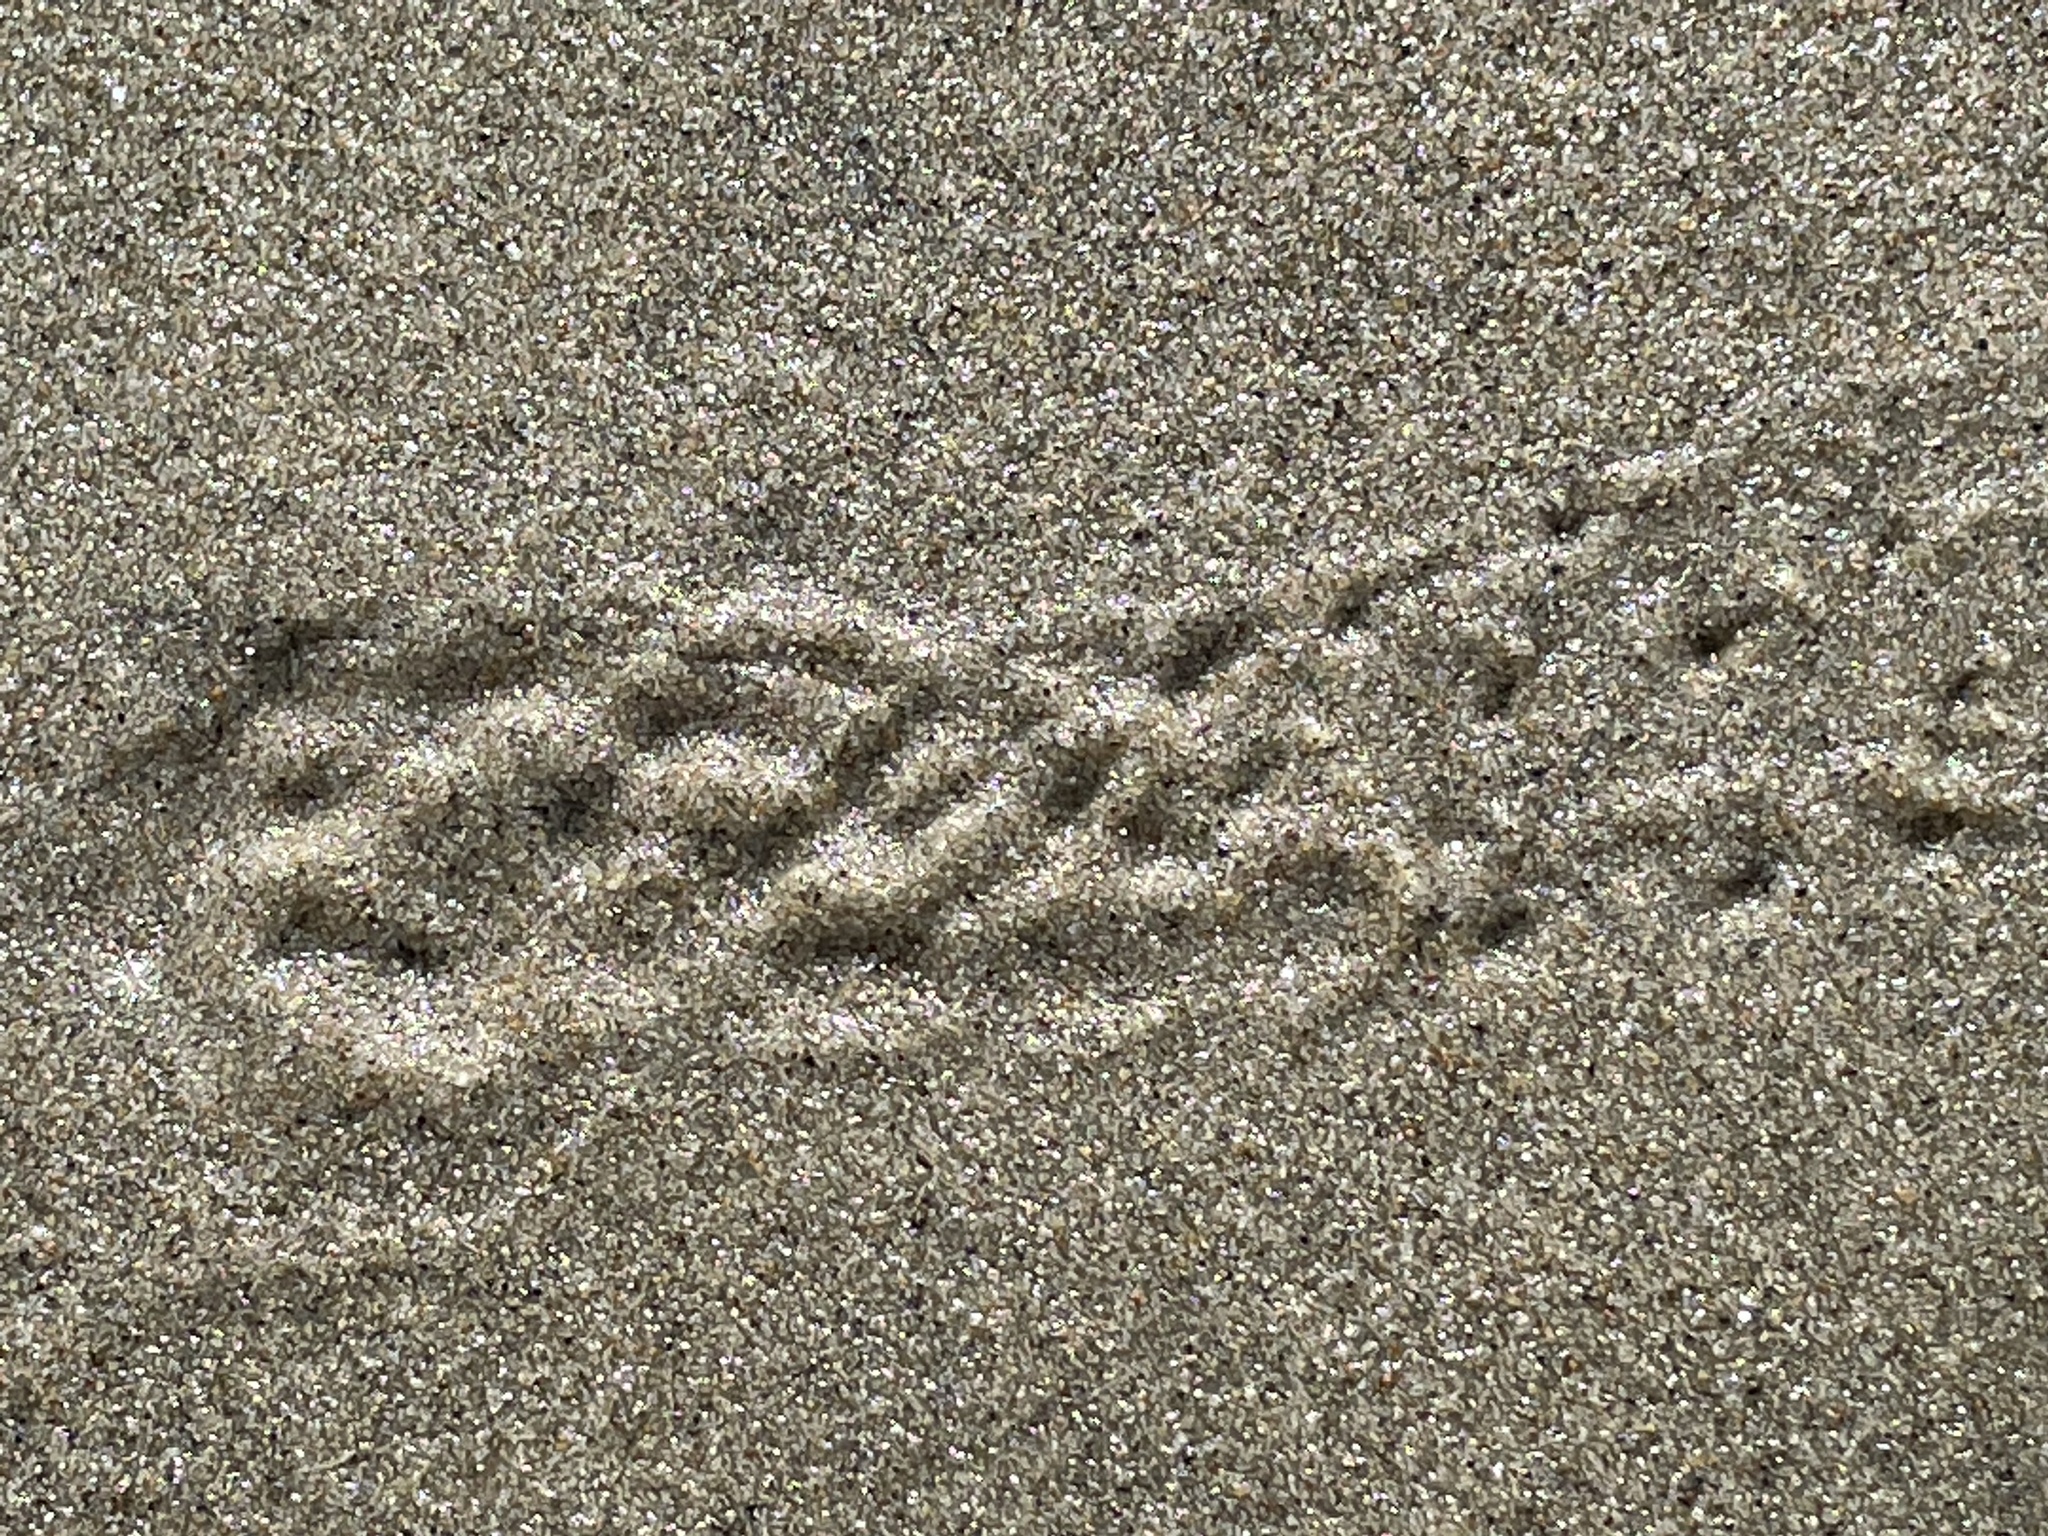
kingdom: Animalia
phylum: Arthropoda
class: Malacostraca
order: Decapoda
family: Paguridae
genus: Pagurus
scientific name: Pagurus samuelis
